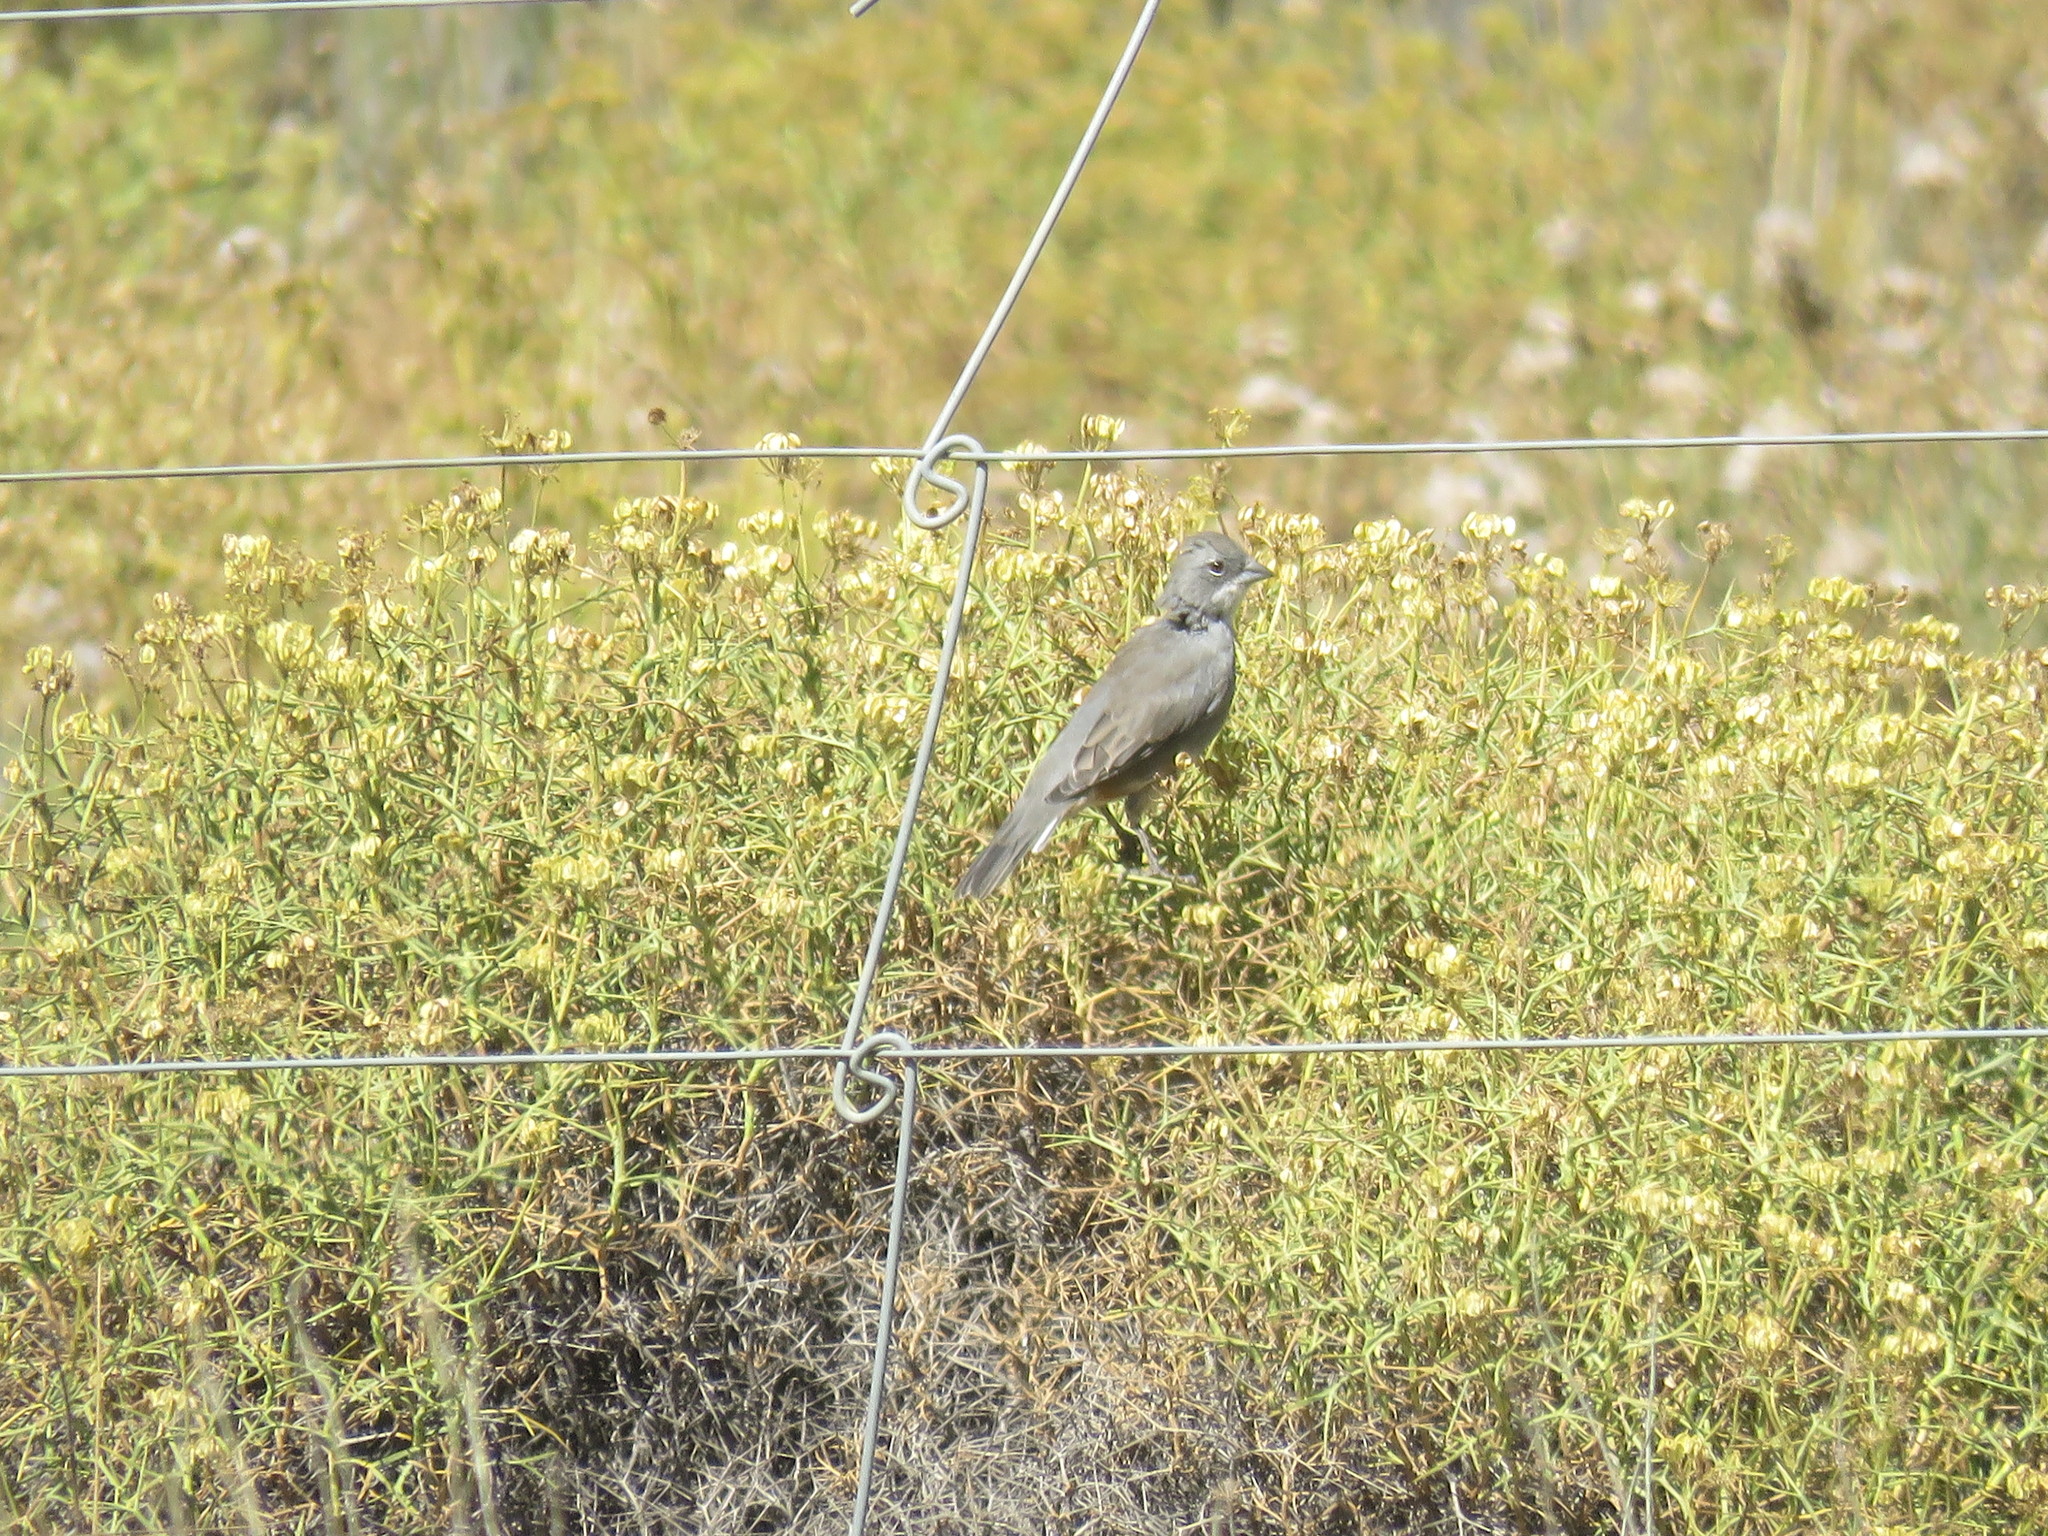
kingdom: Animalia
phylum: Chordata
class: Aves
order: Passeriformes
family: Thraupidae
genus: Diuca
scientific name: Diuca diuca
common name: Common diuca finch
